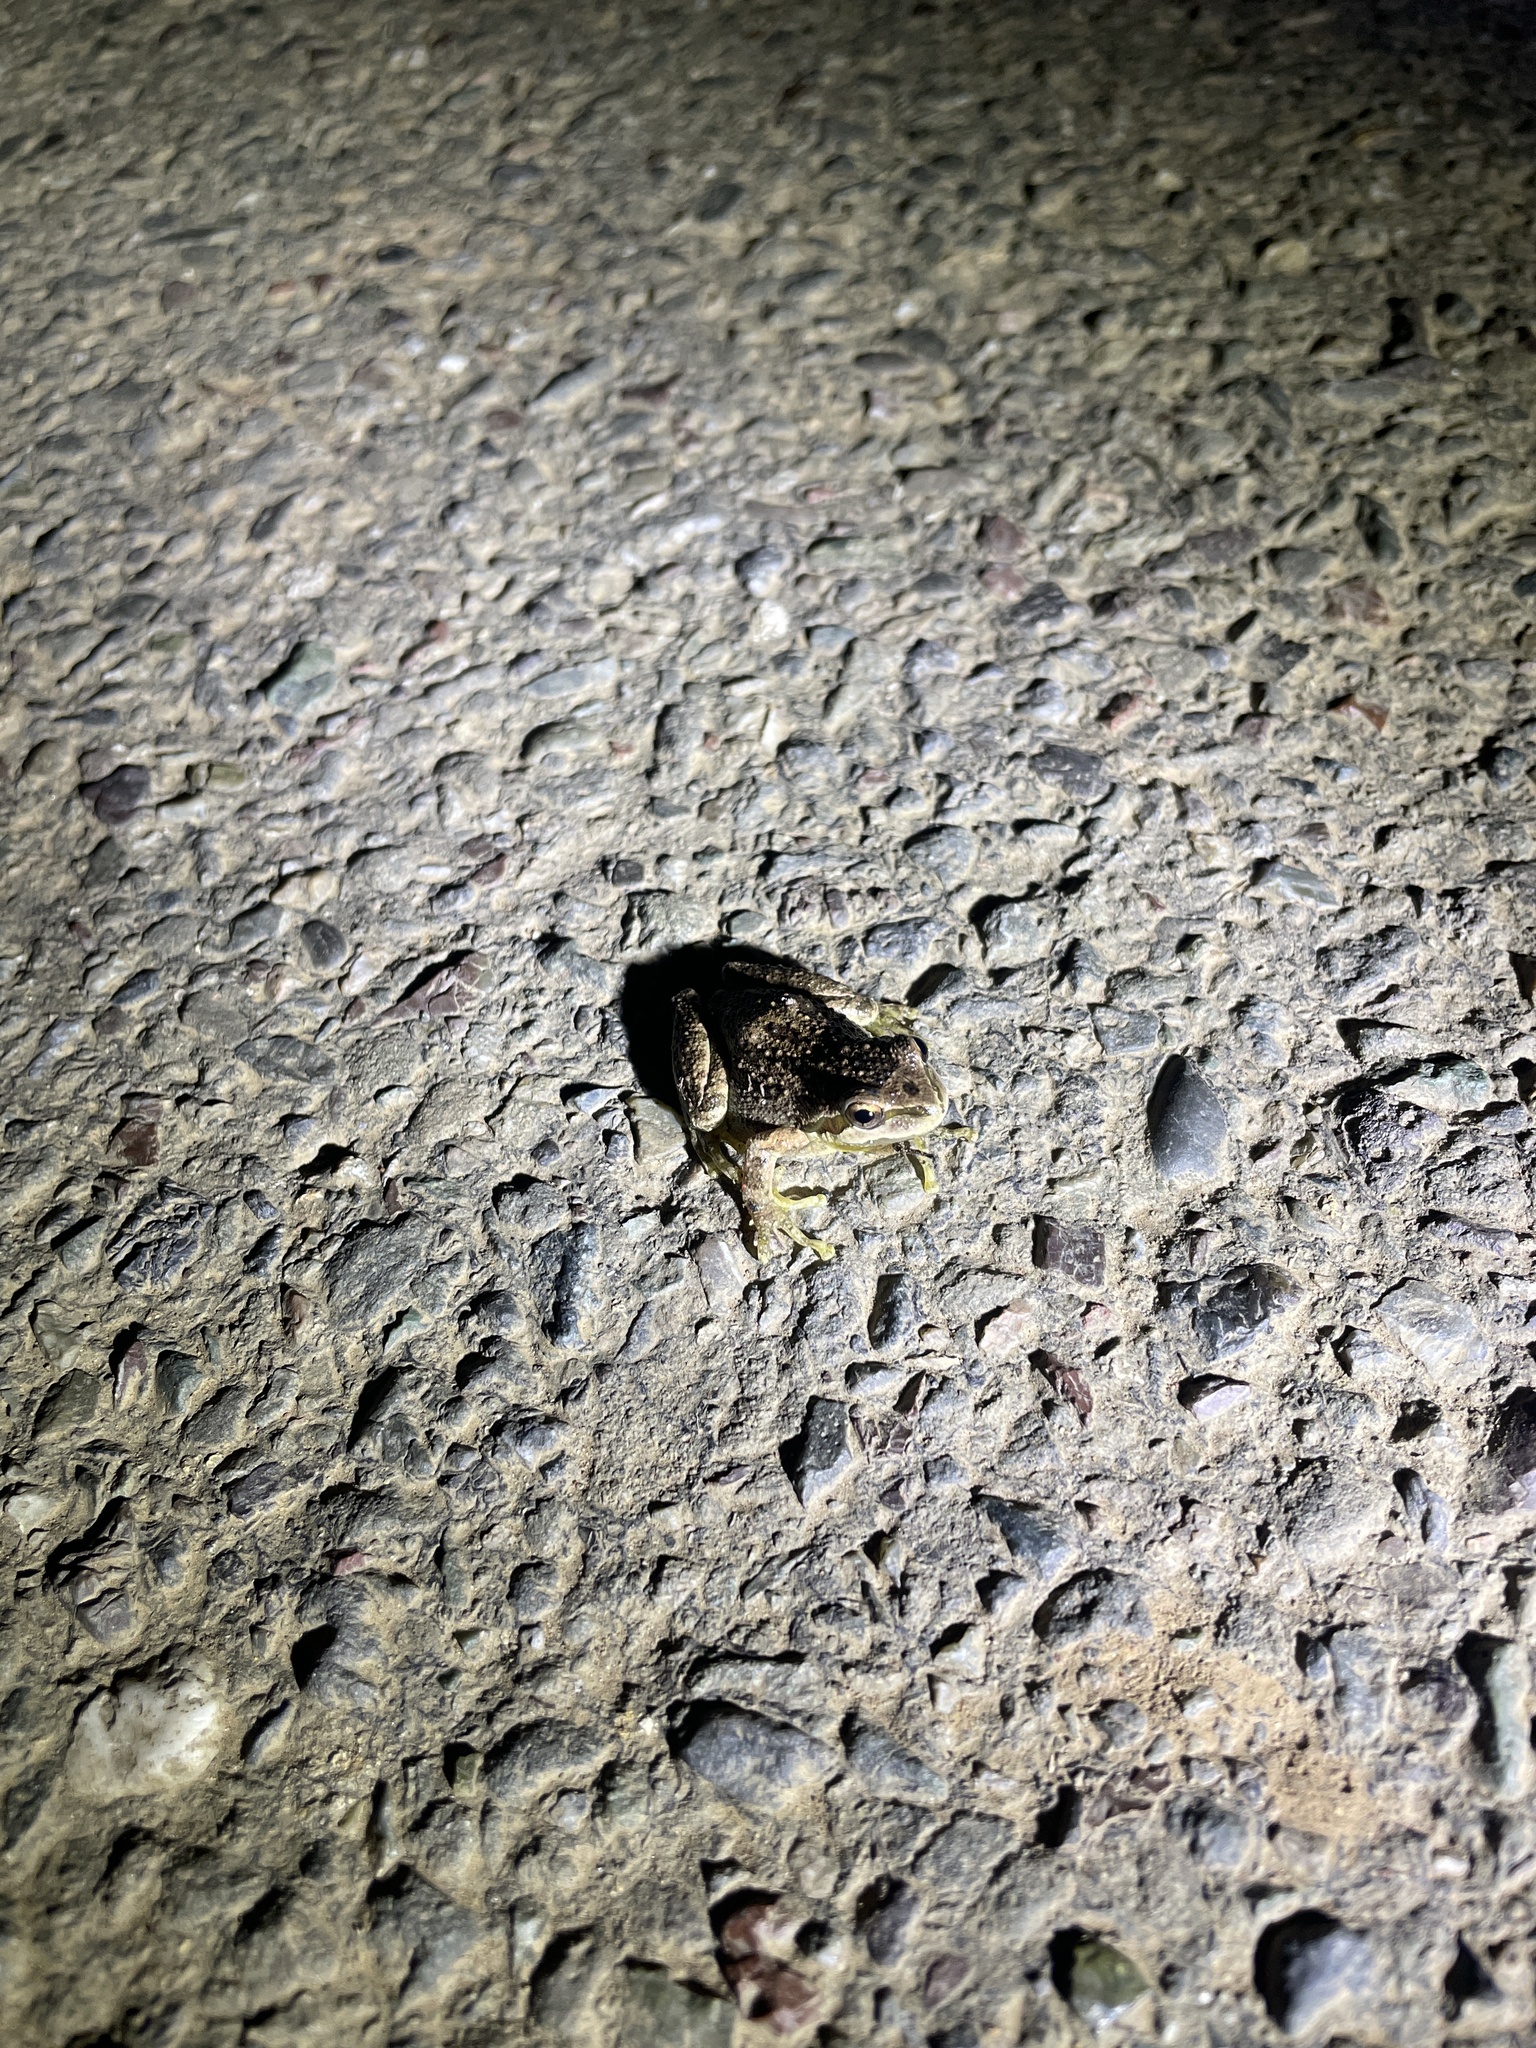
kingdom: Animalia
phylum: Chordata
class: Amphibia
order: Anura
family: Hylidae
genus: Pseudacris
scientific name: Pseudacris regilla
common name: Pacific chorus frog
